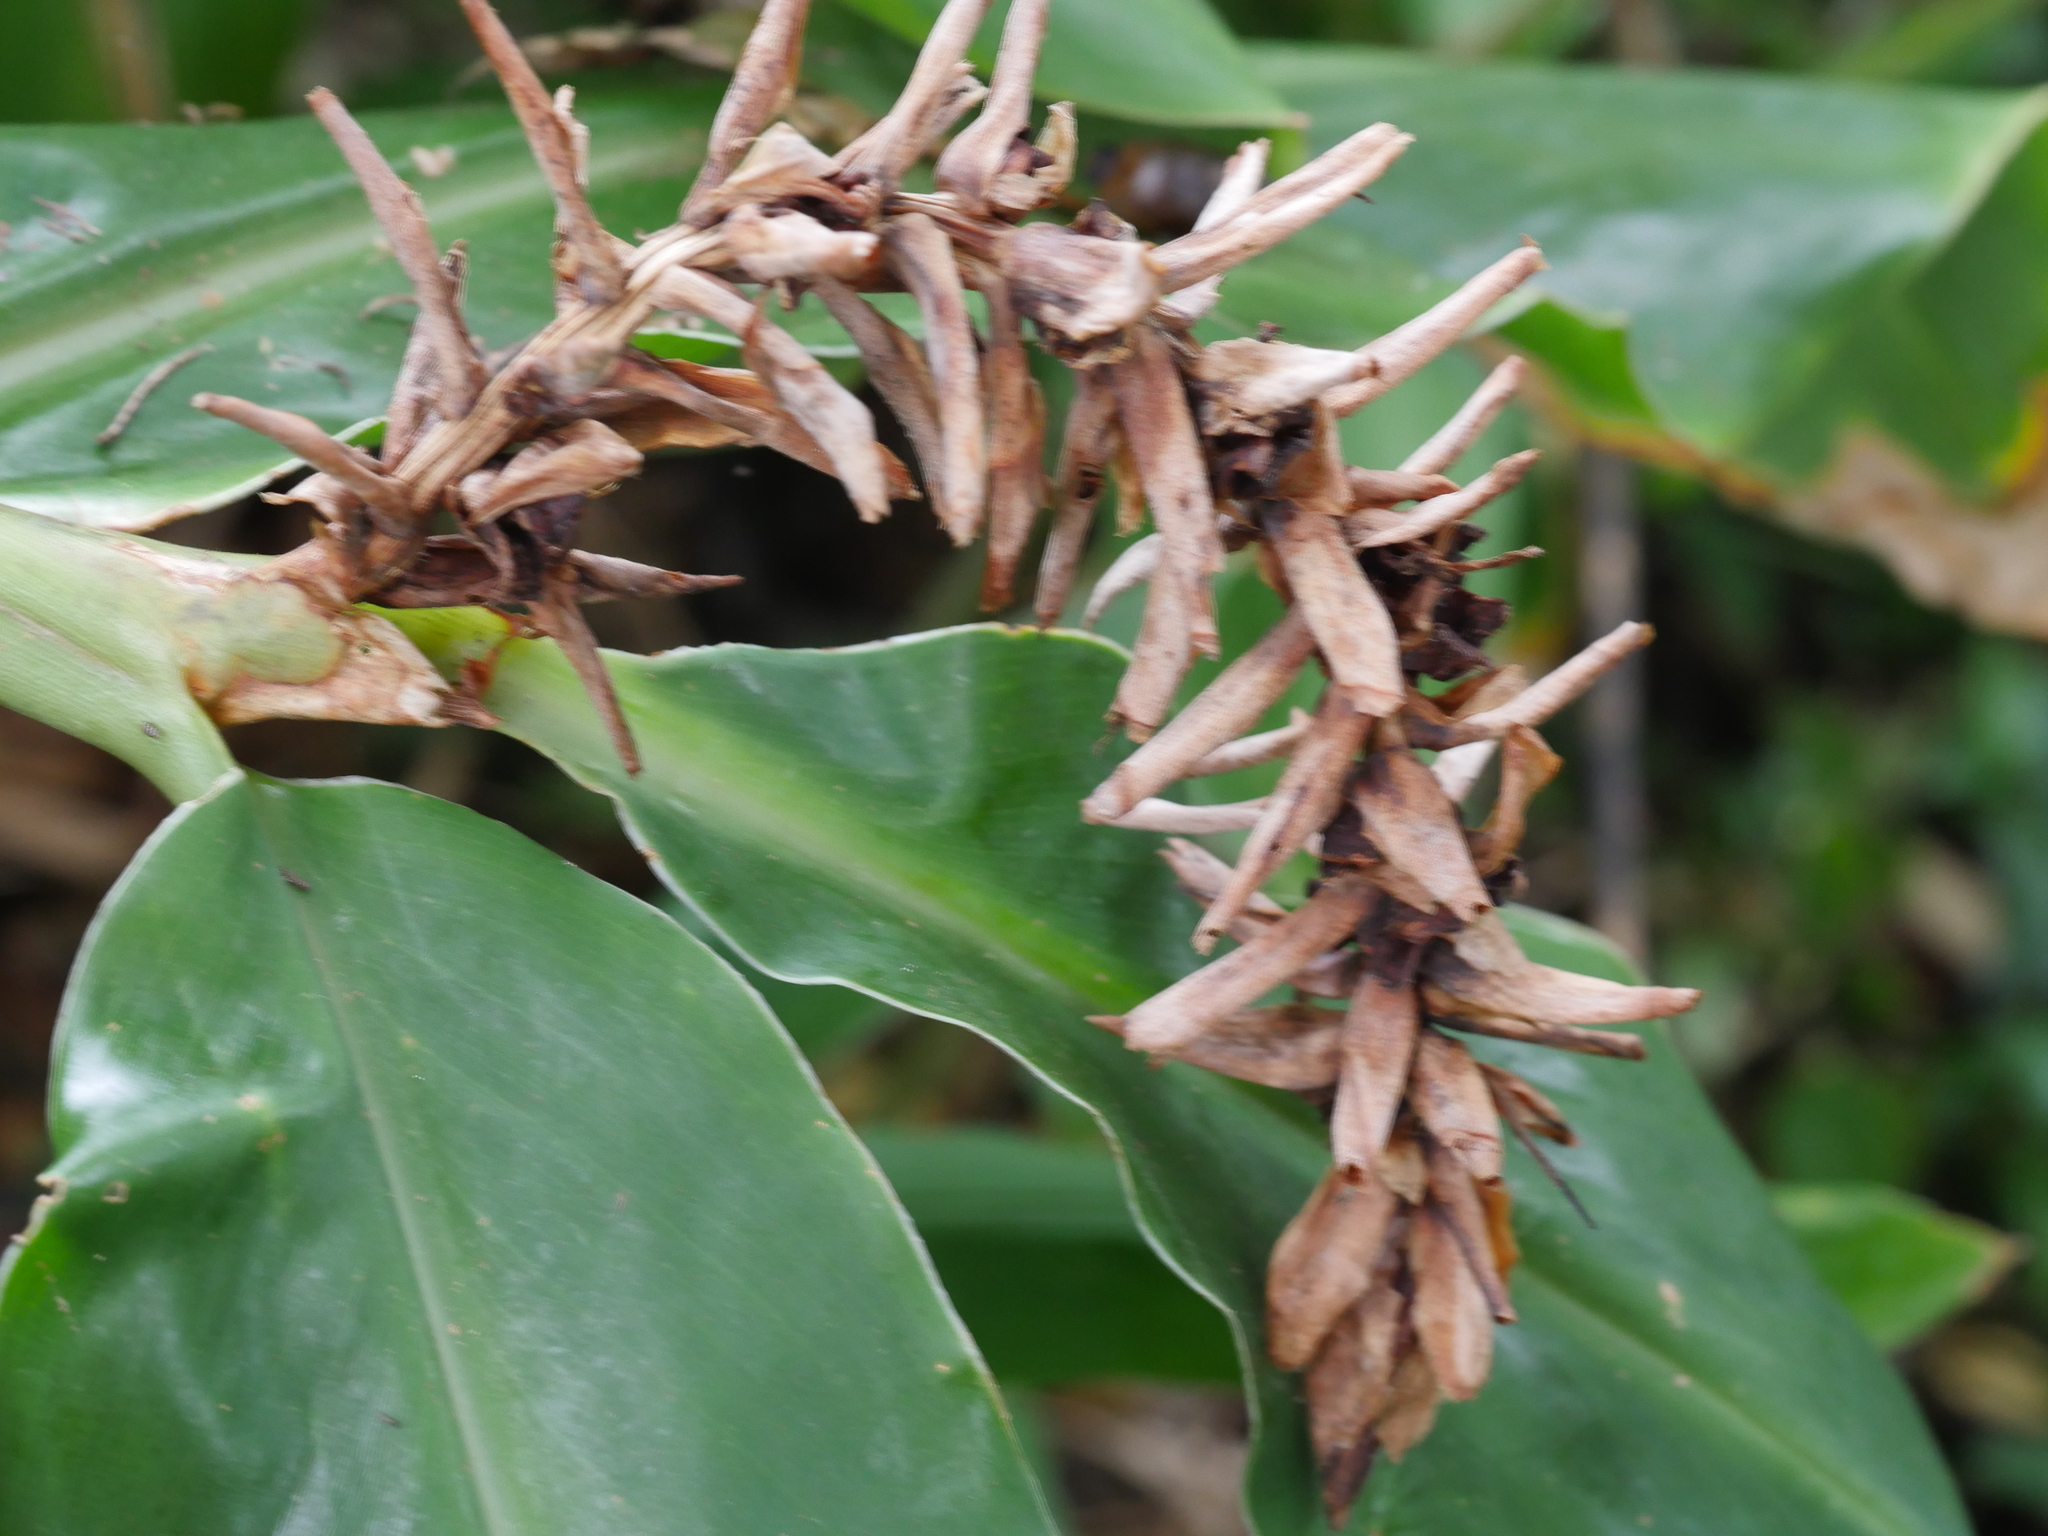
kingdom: Plantae
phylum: Tracheophyta
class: Liliopsida
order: Zingiberales
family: Zingiberaceae
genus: Hedychium
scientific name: Hedychium gardnerianum
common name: Himalayan ginger
